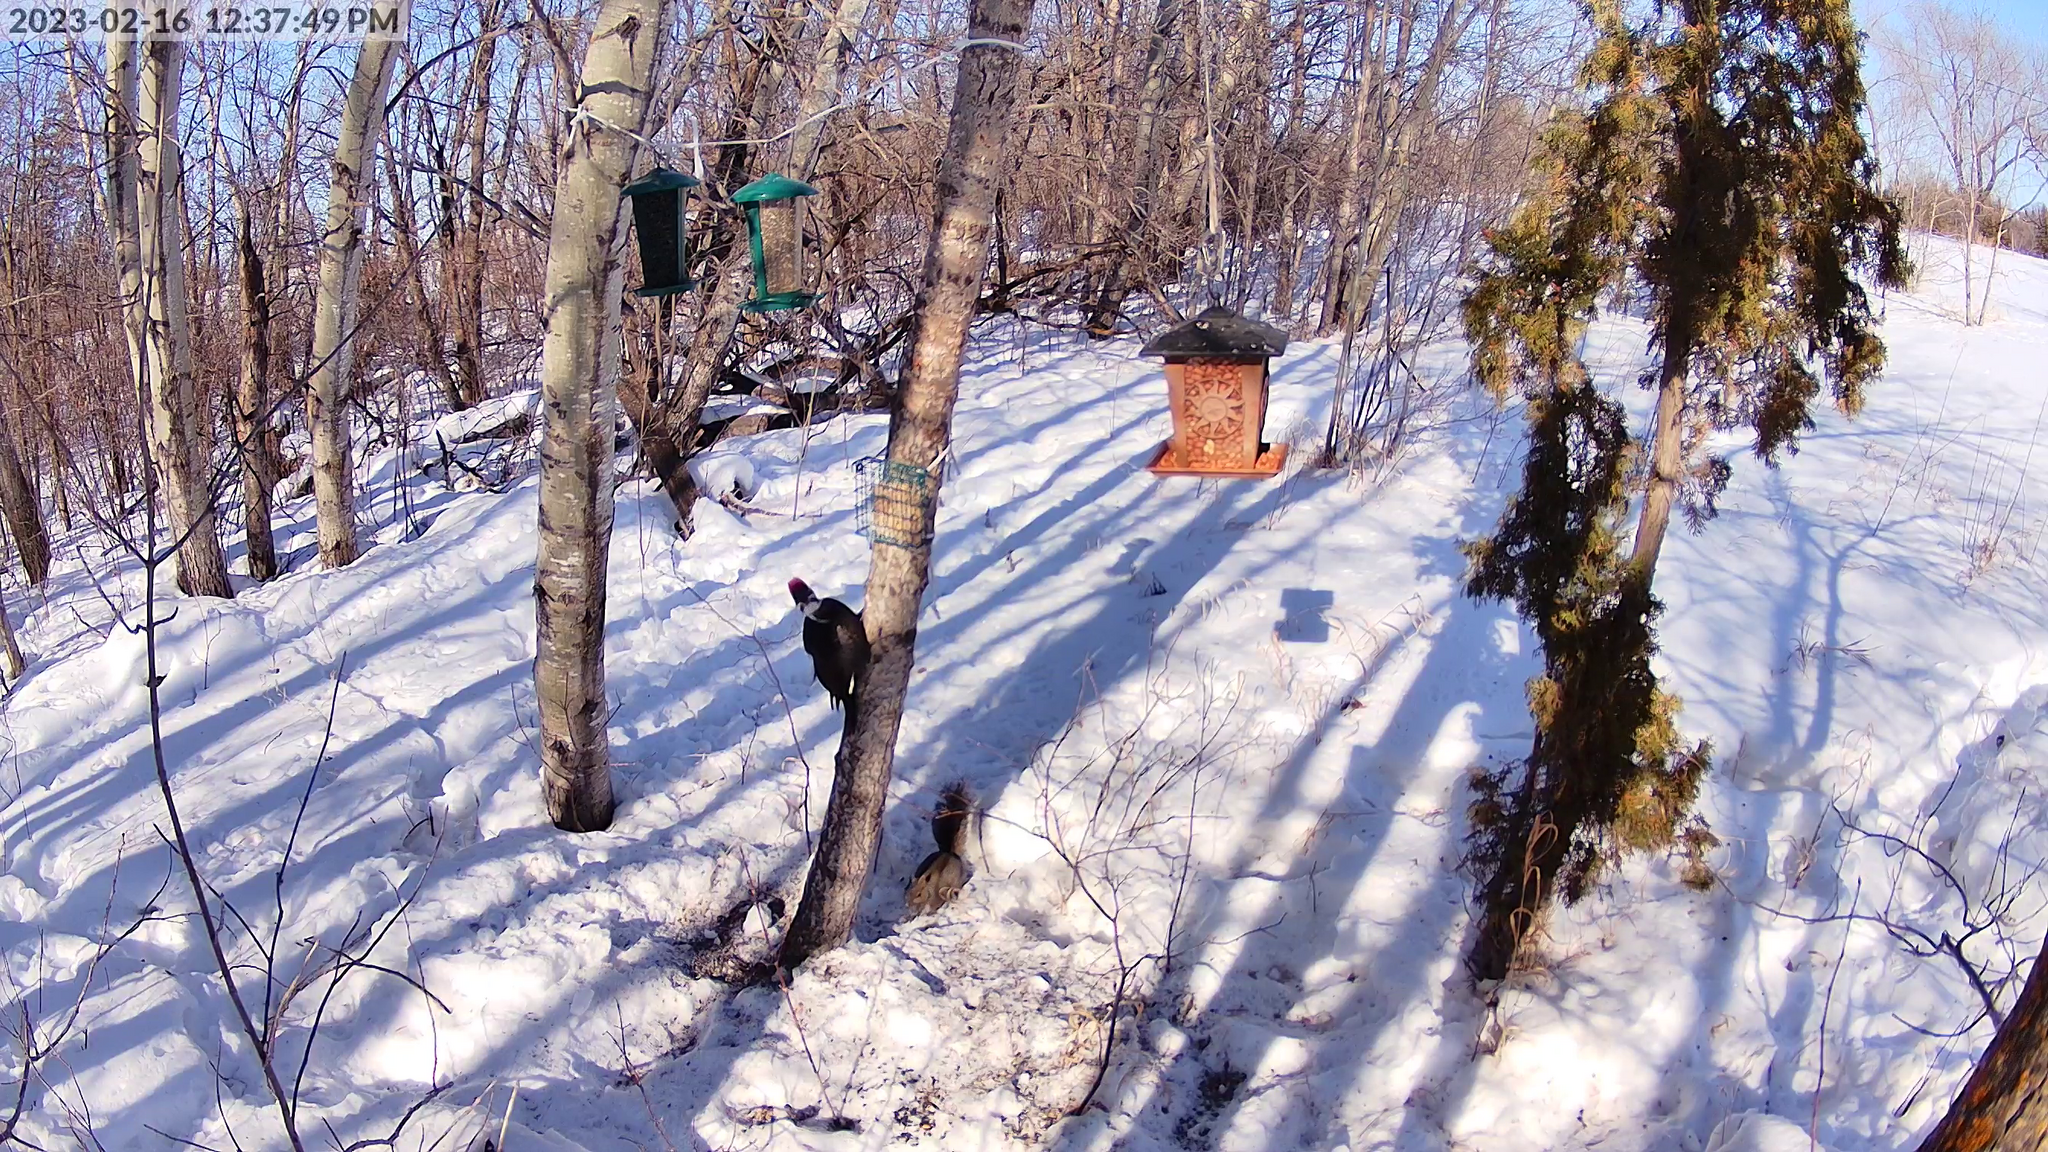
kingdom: Animalia
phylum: Chordata
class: Mammalia
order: Rodentia
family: Sciuridae
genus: Sciurus
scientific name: Sciurus carolinensis
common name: Eastern gray squirrel
